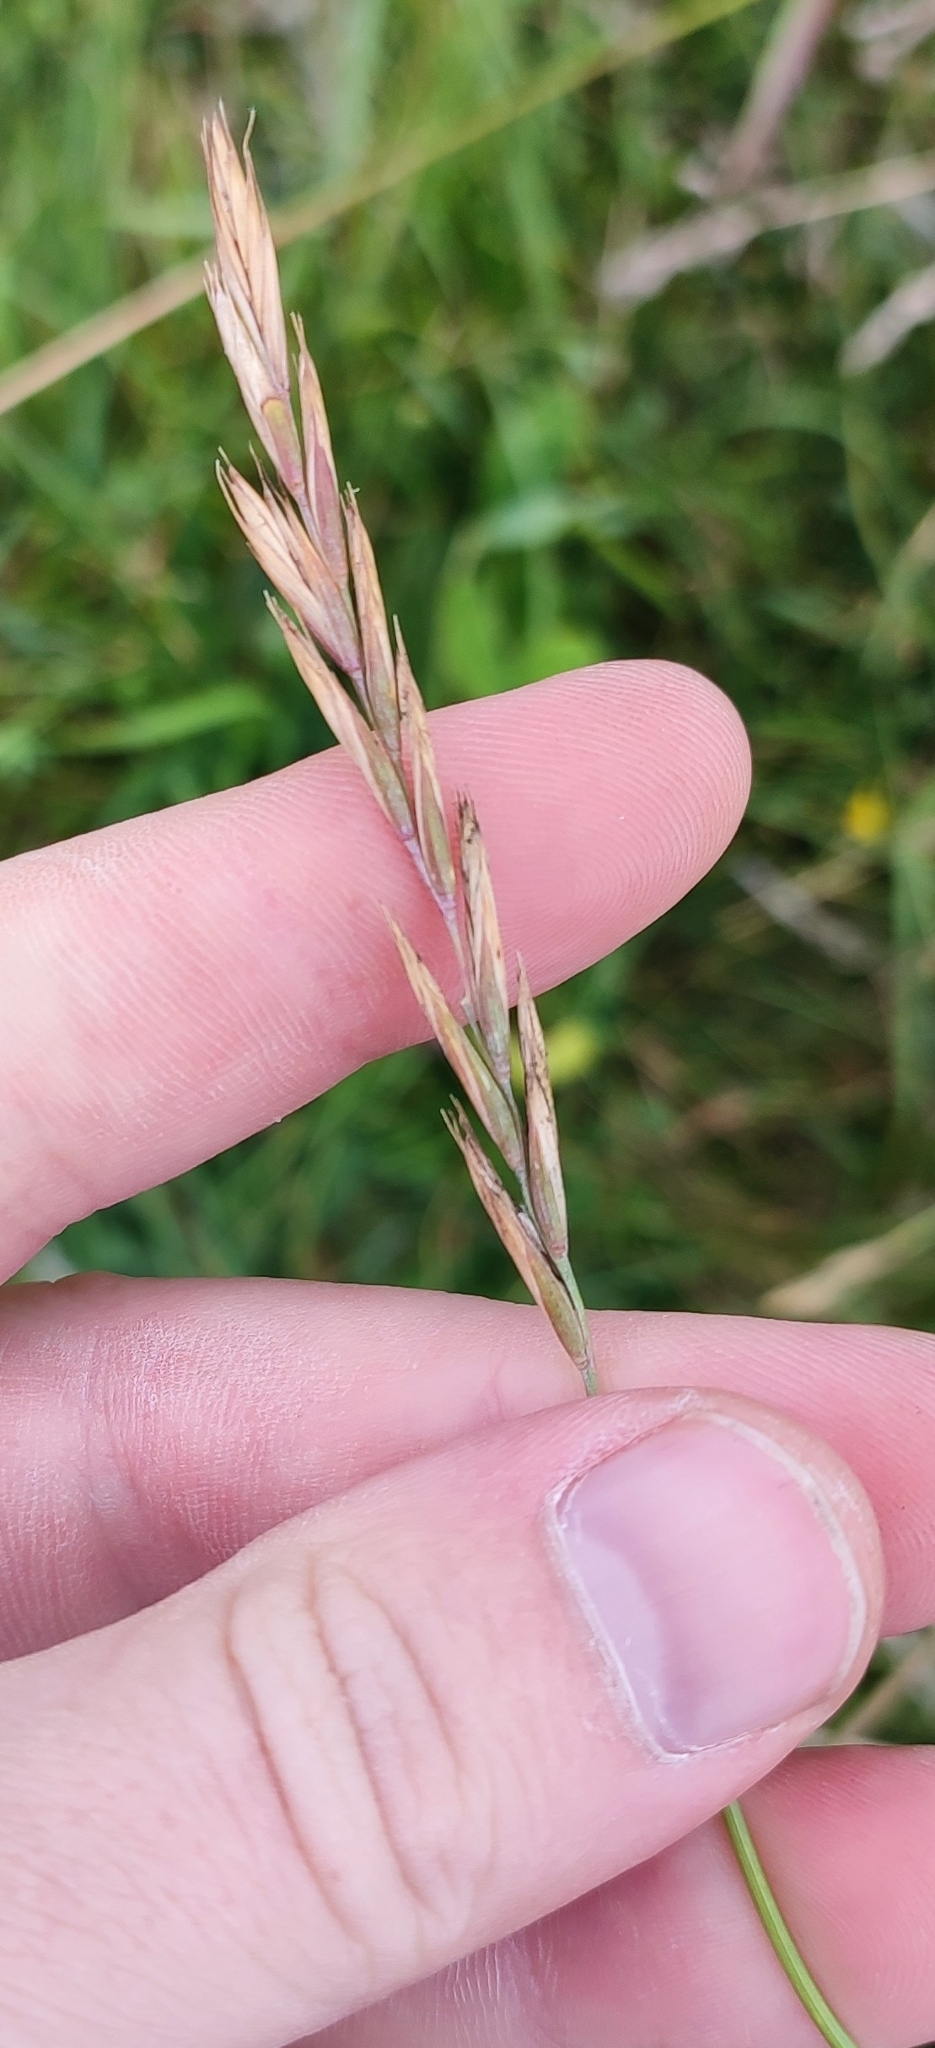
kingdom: Plantae
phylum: Tracheophyta
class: Liliopsida
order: Poales
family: Poaceae
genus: Elymus
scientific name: Elymus repens
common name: Quackgrass
